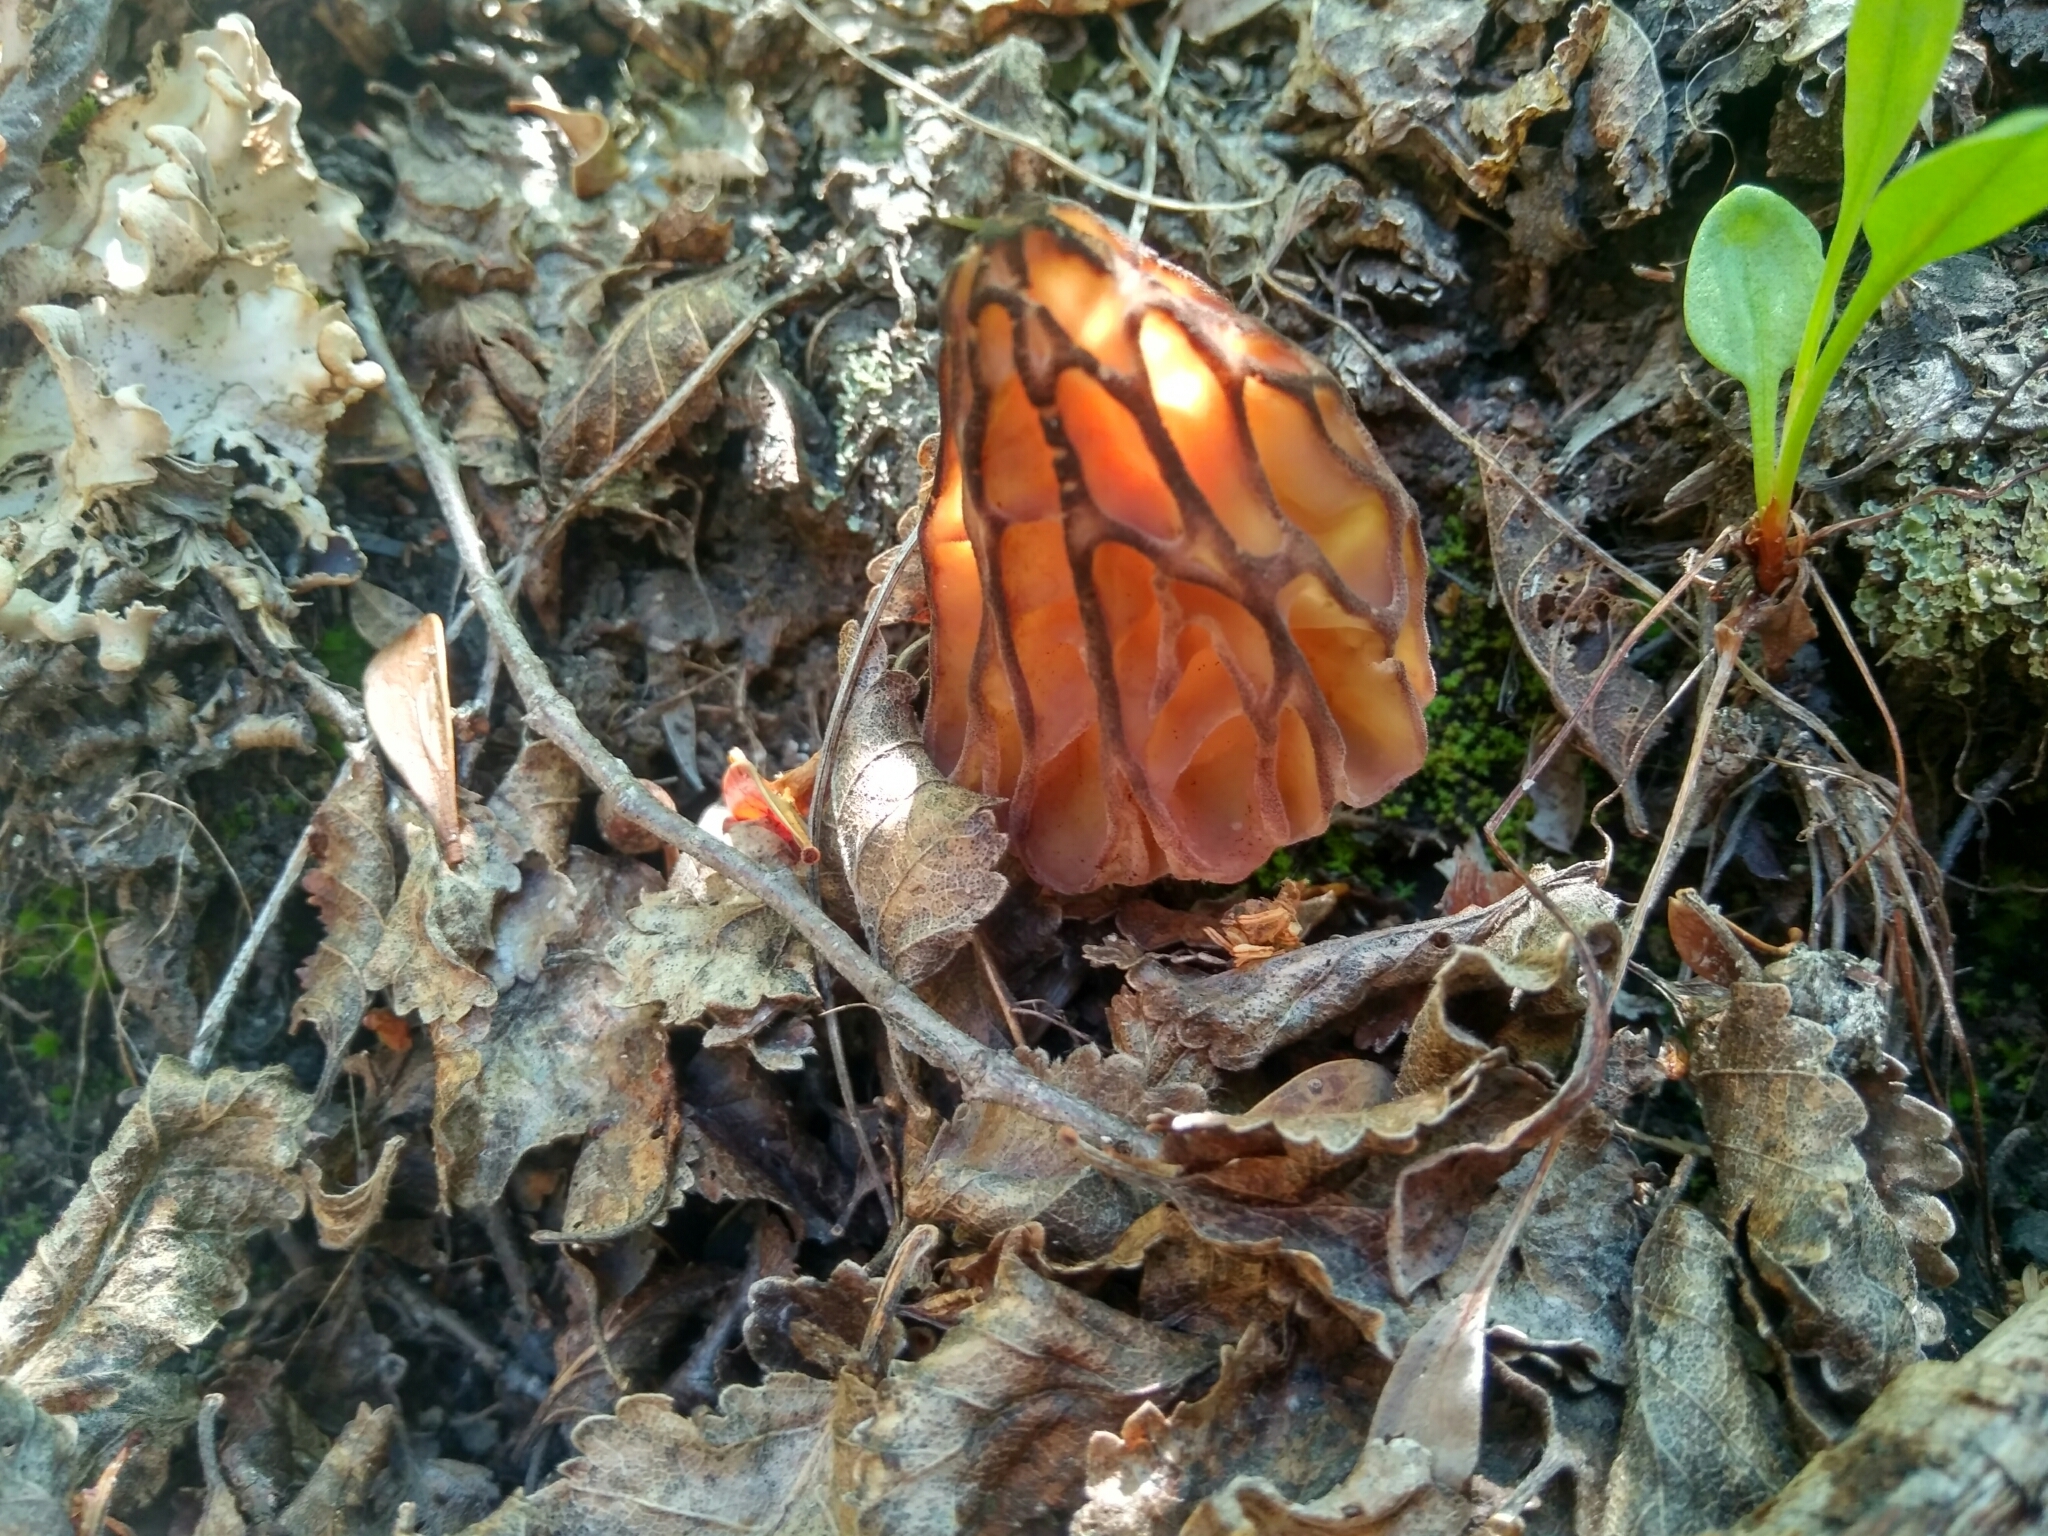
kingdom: Fungi
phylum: Ascomycota
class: Pezizomycetes
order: Pezizales
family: Morchellaceae
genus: Morchella
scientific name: Morchella
